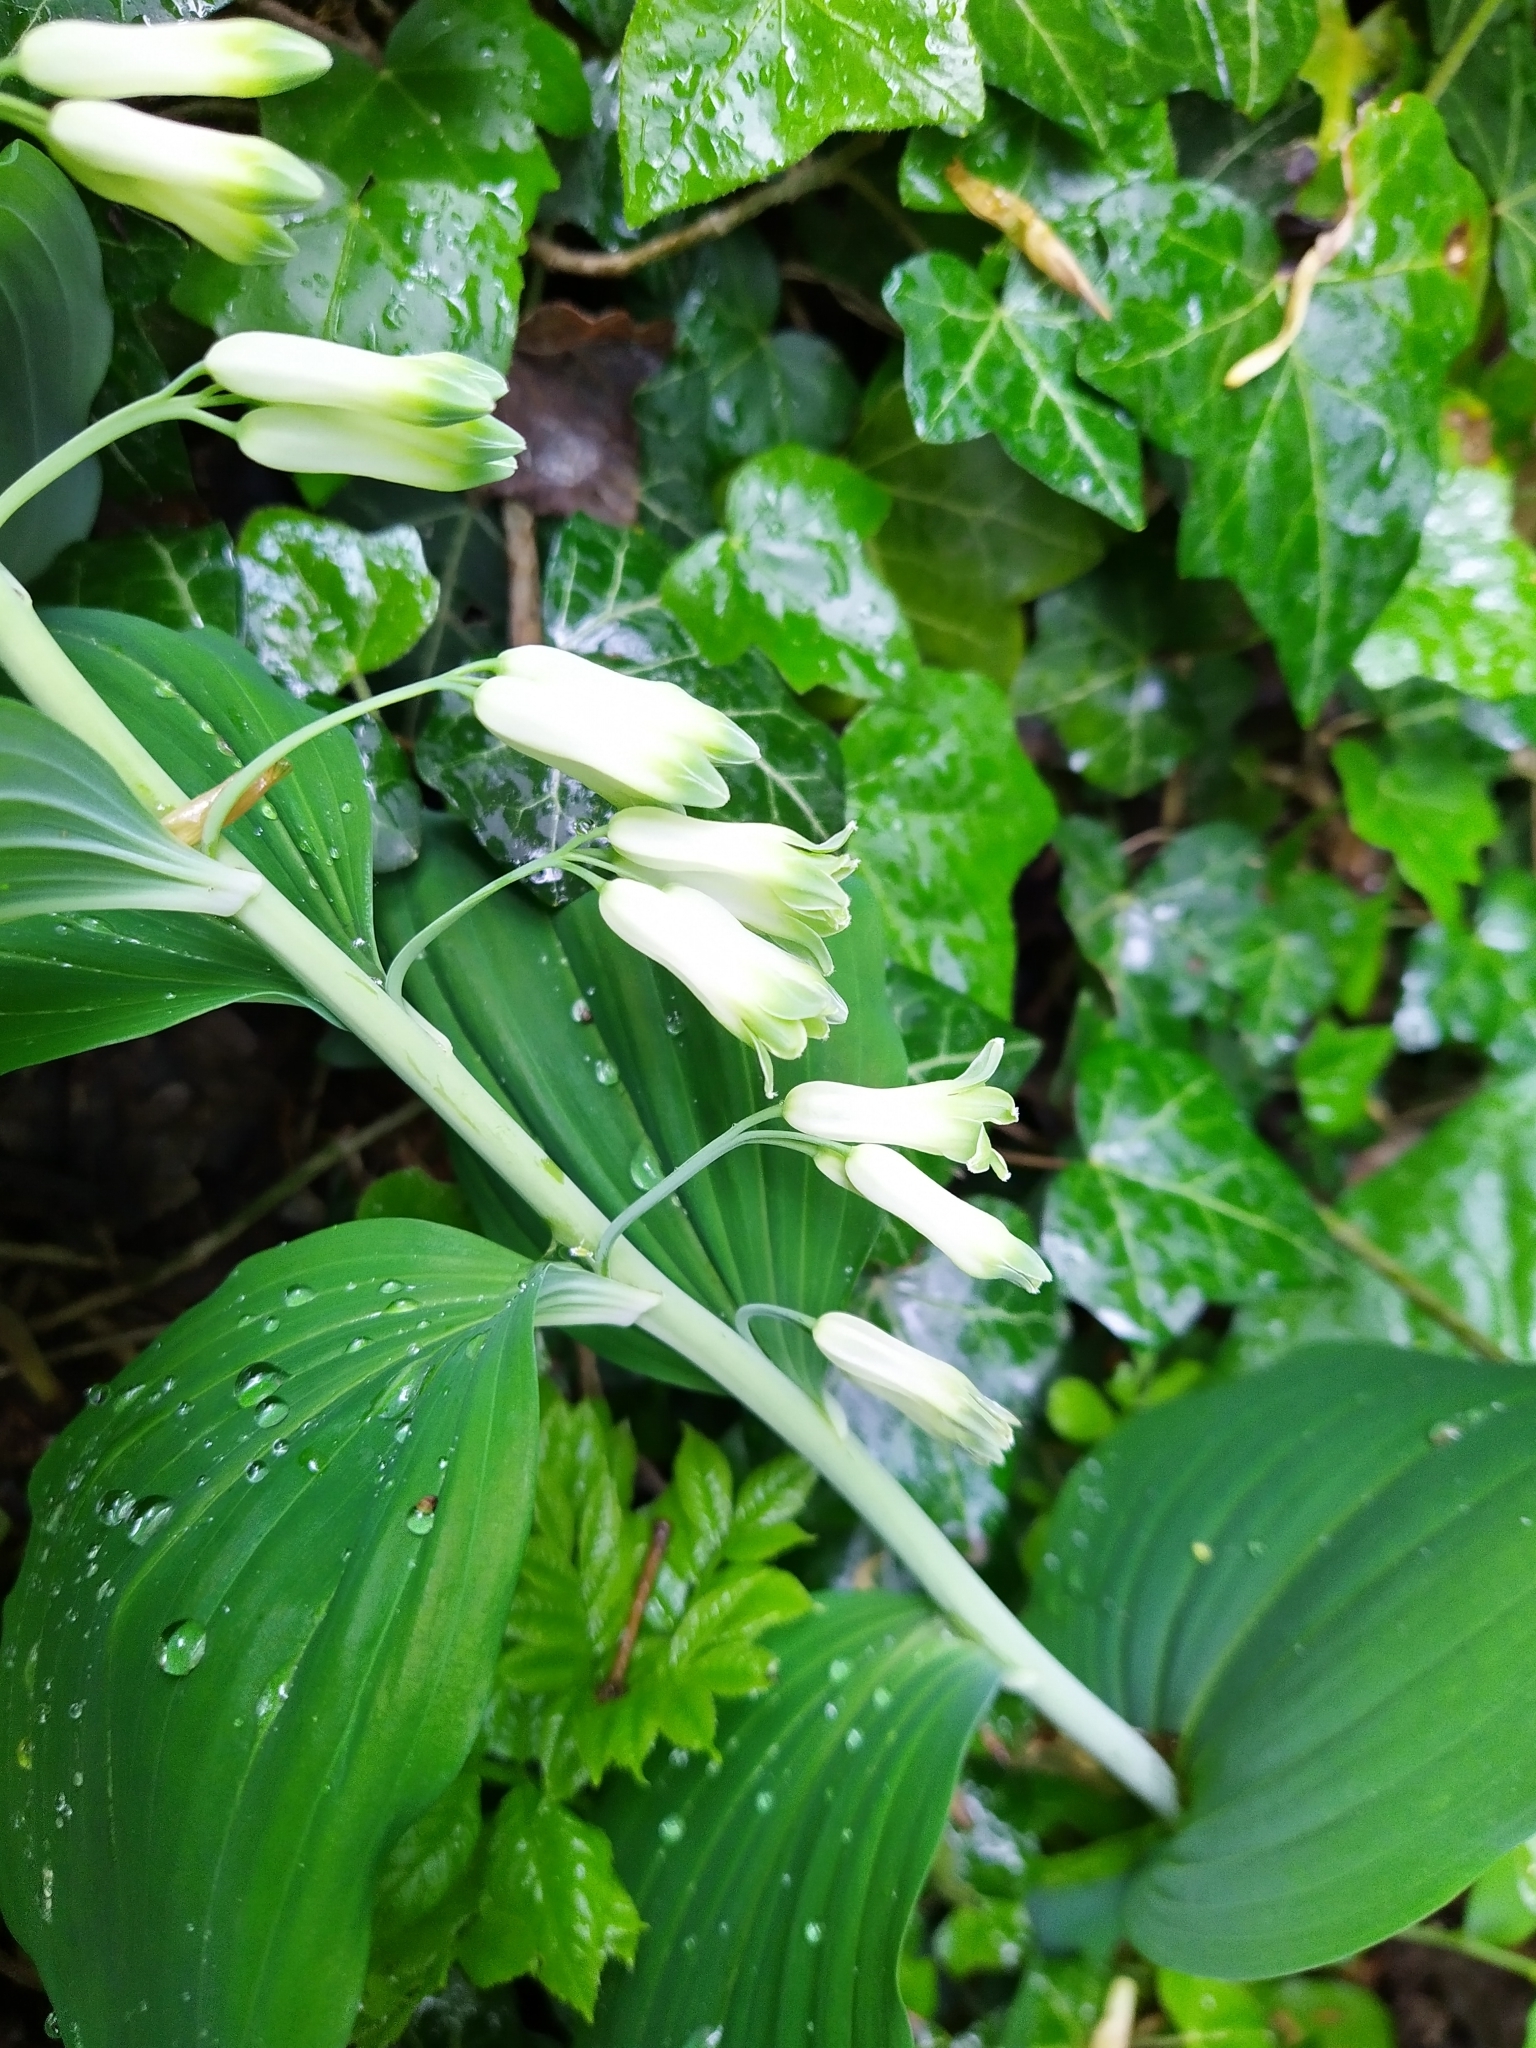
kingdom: Plantae
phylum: Tracheophyta
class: Liliopsida
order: Asparagales
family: Asparagaceae
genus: Polygonatum
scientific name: Polygonatum multiflorum
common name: Solomon's-seal
